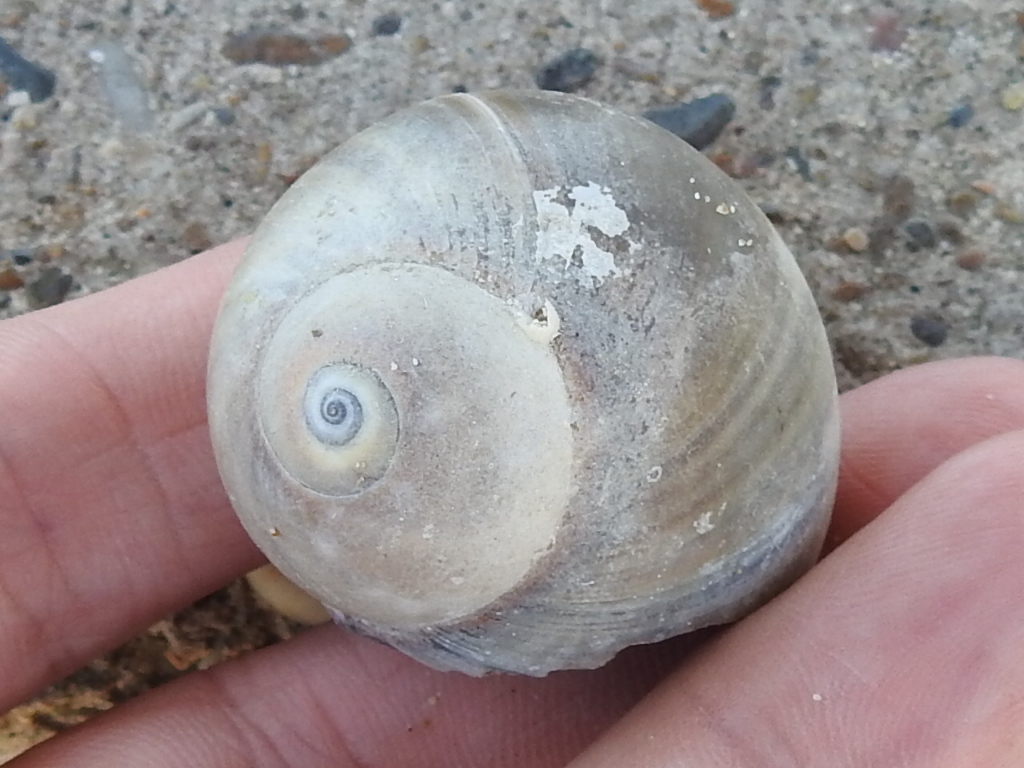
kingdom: Animalia
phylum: Mollusca
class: Gastropoda
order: Littorinimorpha
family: Naticidae
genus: Neverita
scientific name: Neverita delessertiana
